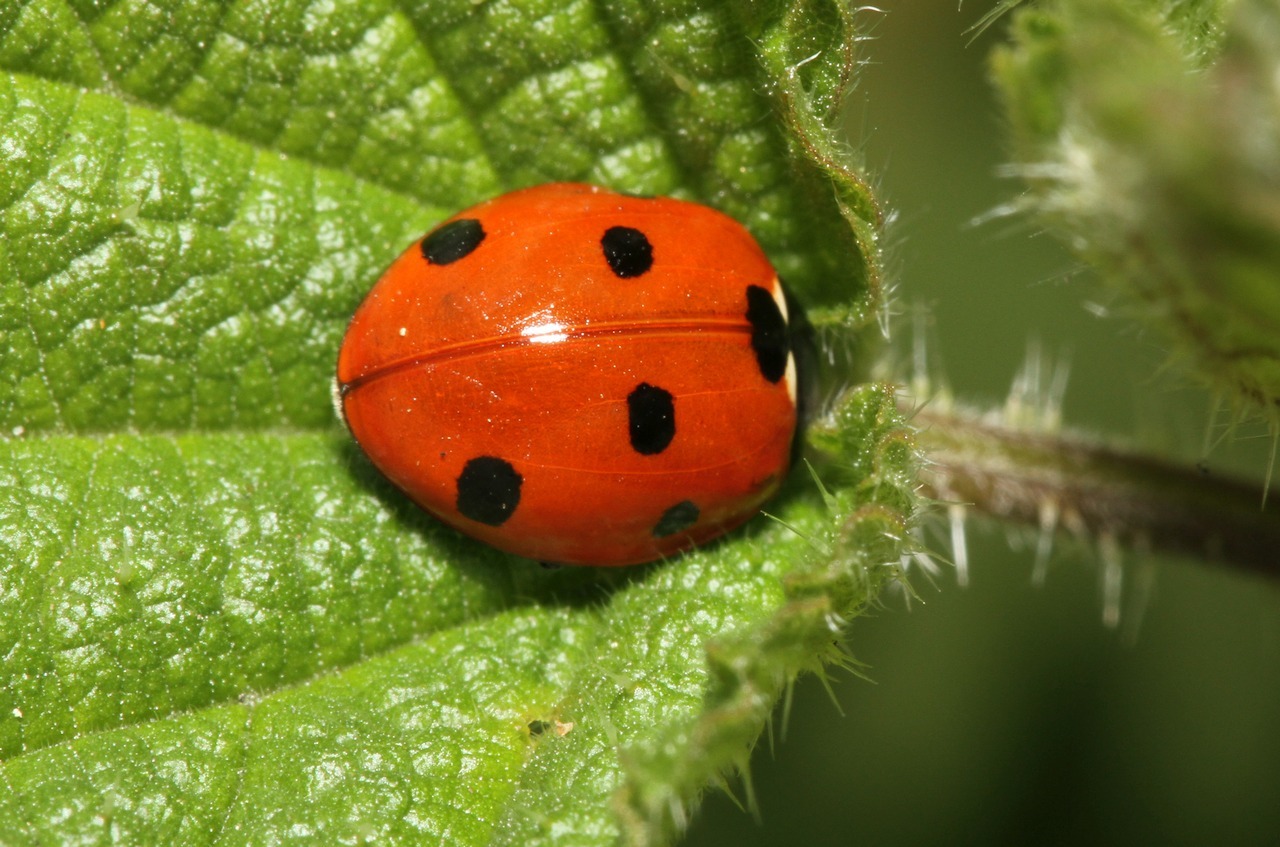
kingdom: Animalia
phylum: Arthropoda
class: Insecta
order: Coleoptera
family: Coccinellidae
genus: Coccinella
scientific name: Coccinella septempunctata
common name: Sevenspotted lady beetle
